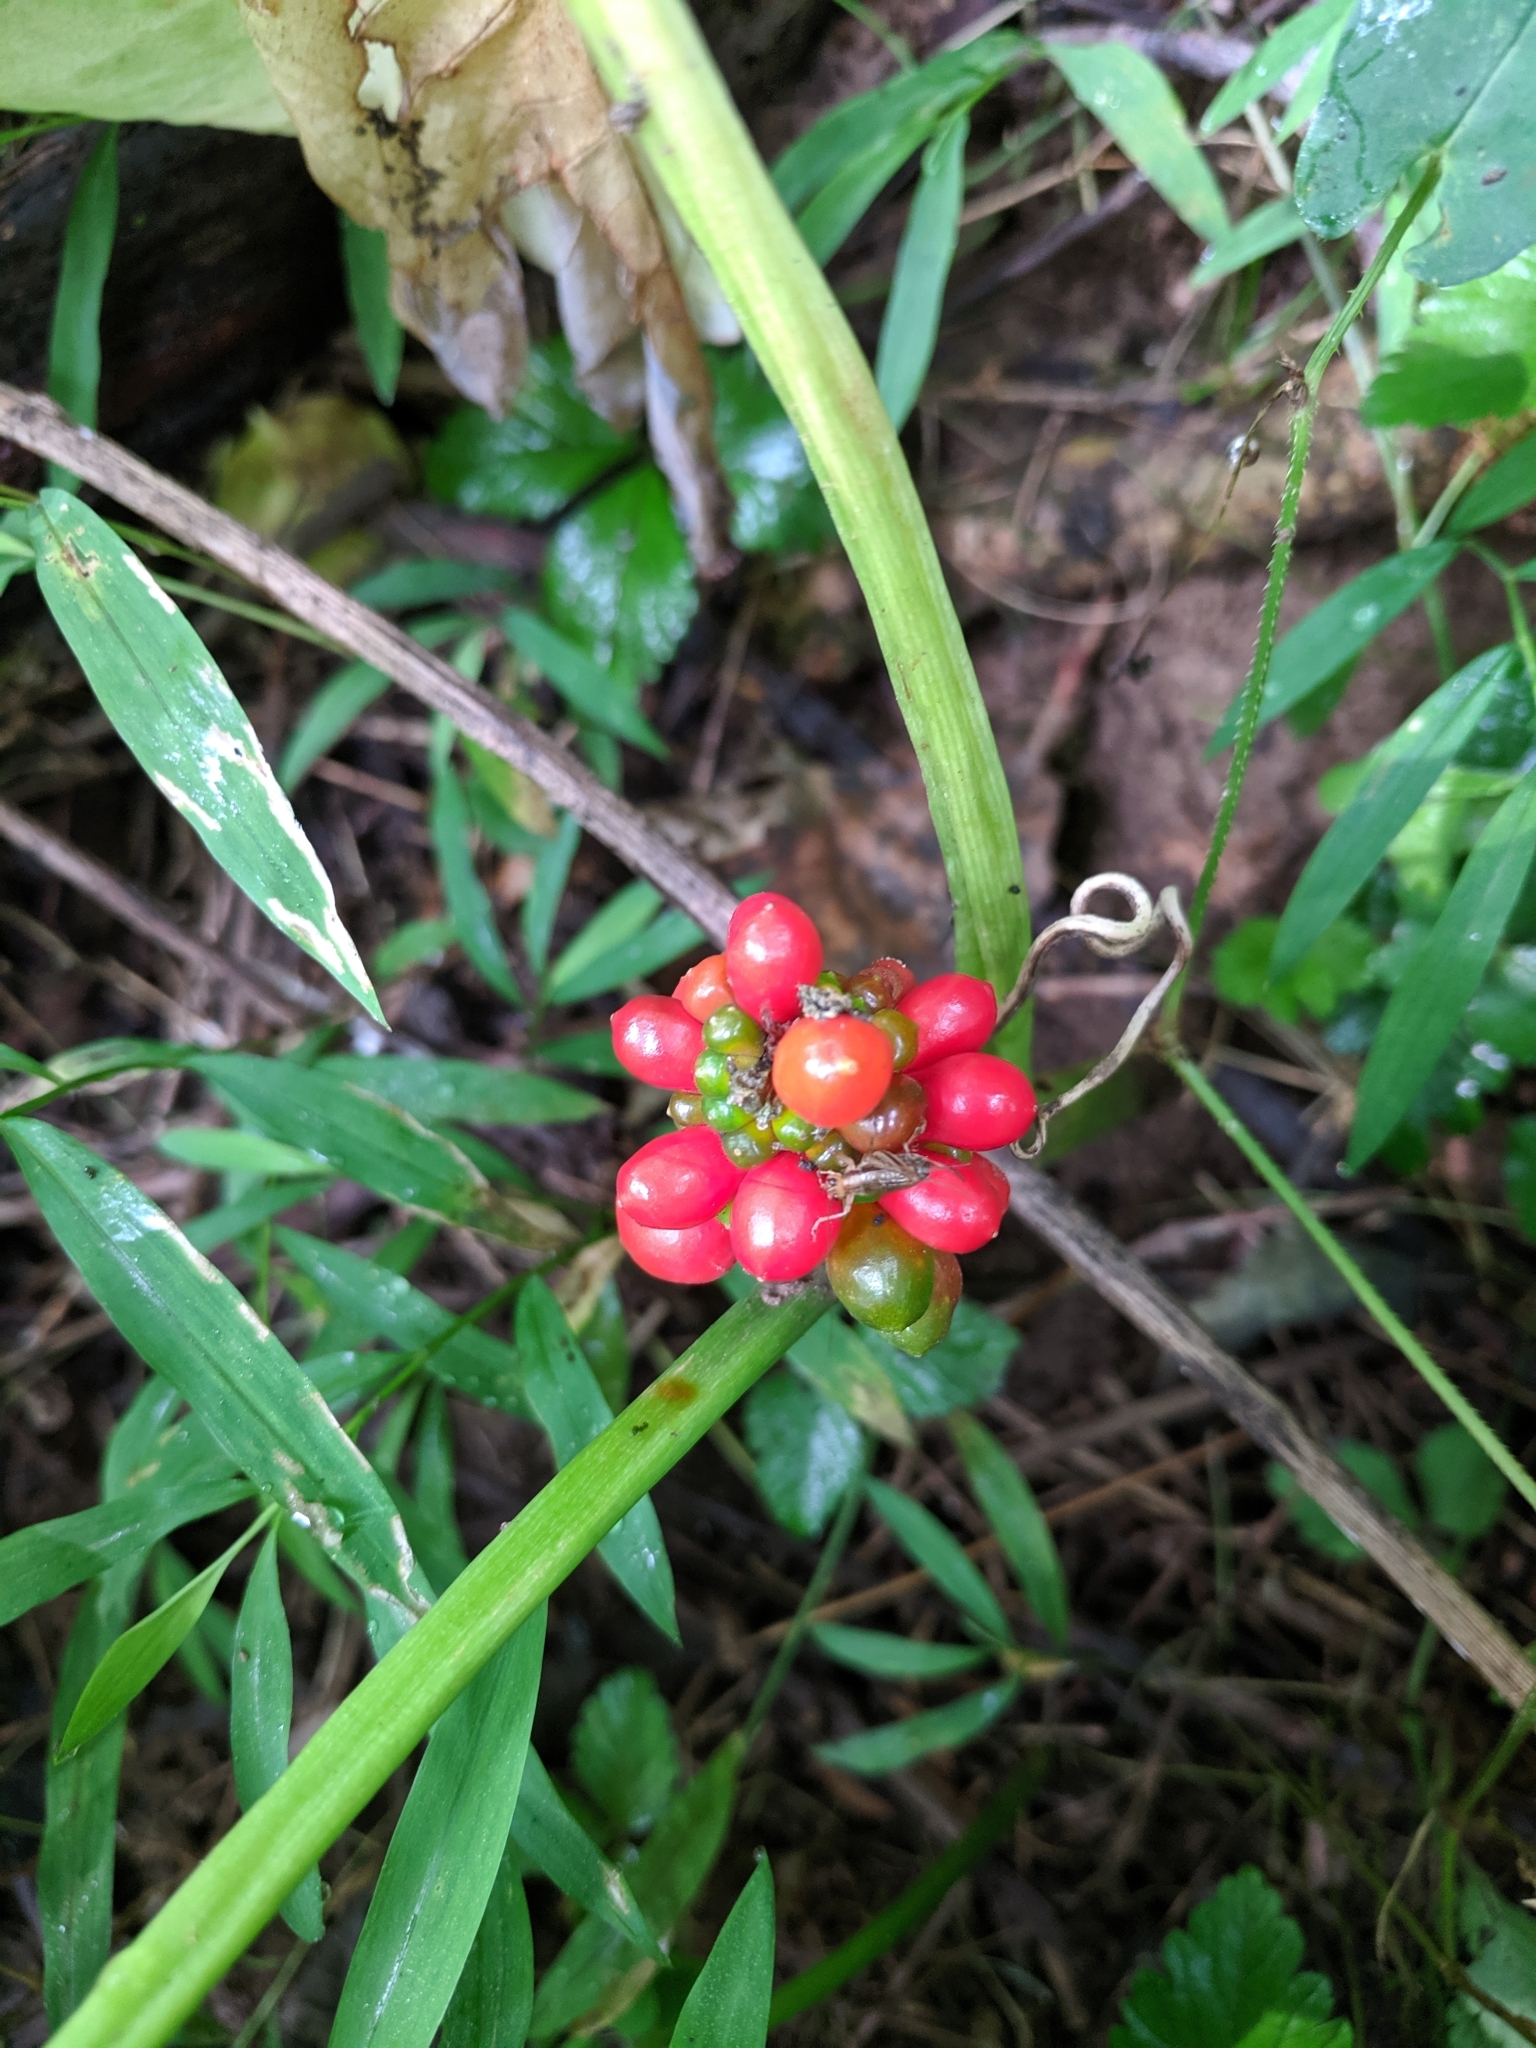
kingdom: Plantae
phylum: Tracheophyta
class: Liliopsida
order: Alismatales
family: Araceae
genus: Arisaema
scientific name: Arisaema triphyllum
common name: Jack-in-the-pulpit
